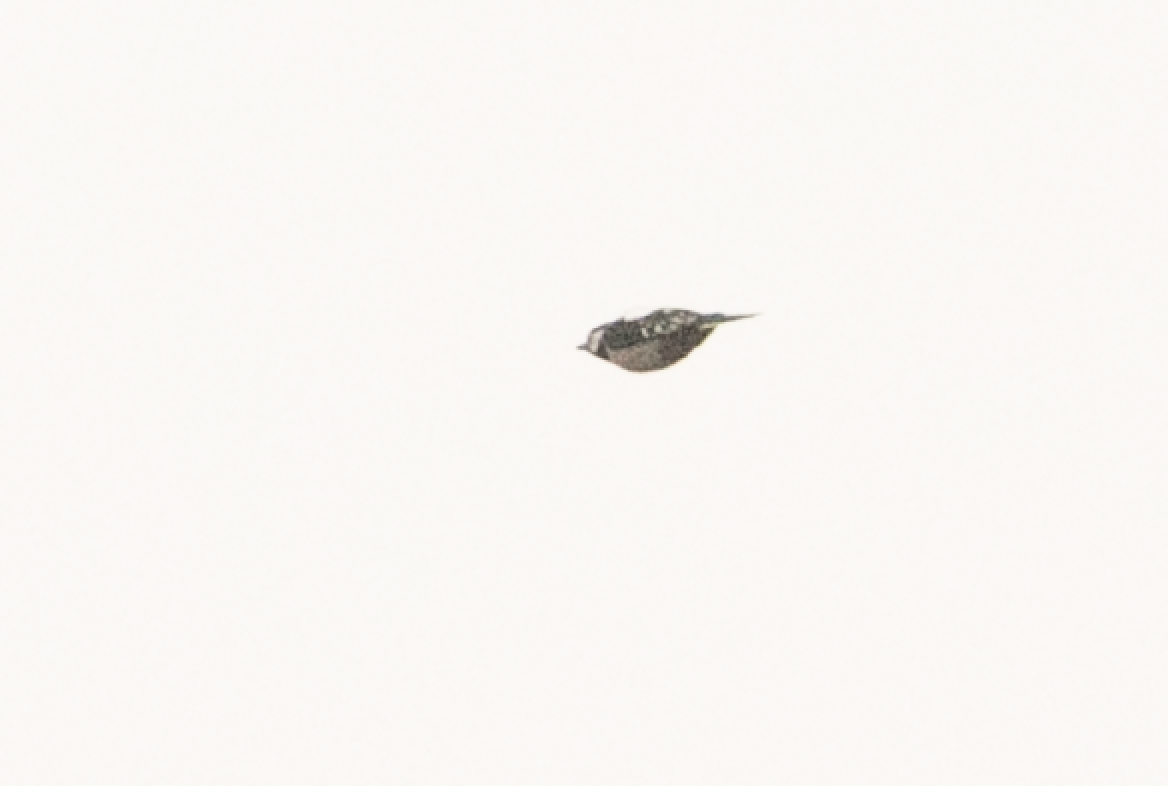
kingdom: Animalia
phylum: Chordata
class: Aves
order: Piciformes
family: Picidae
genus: Dendrocopos
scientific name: Dendrocopos major
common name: Great spotted woodpecker
